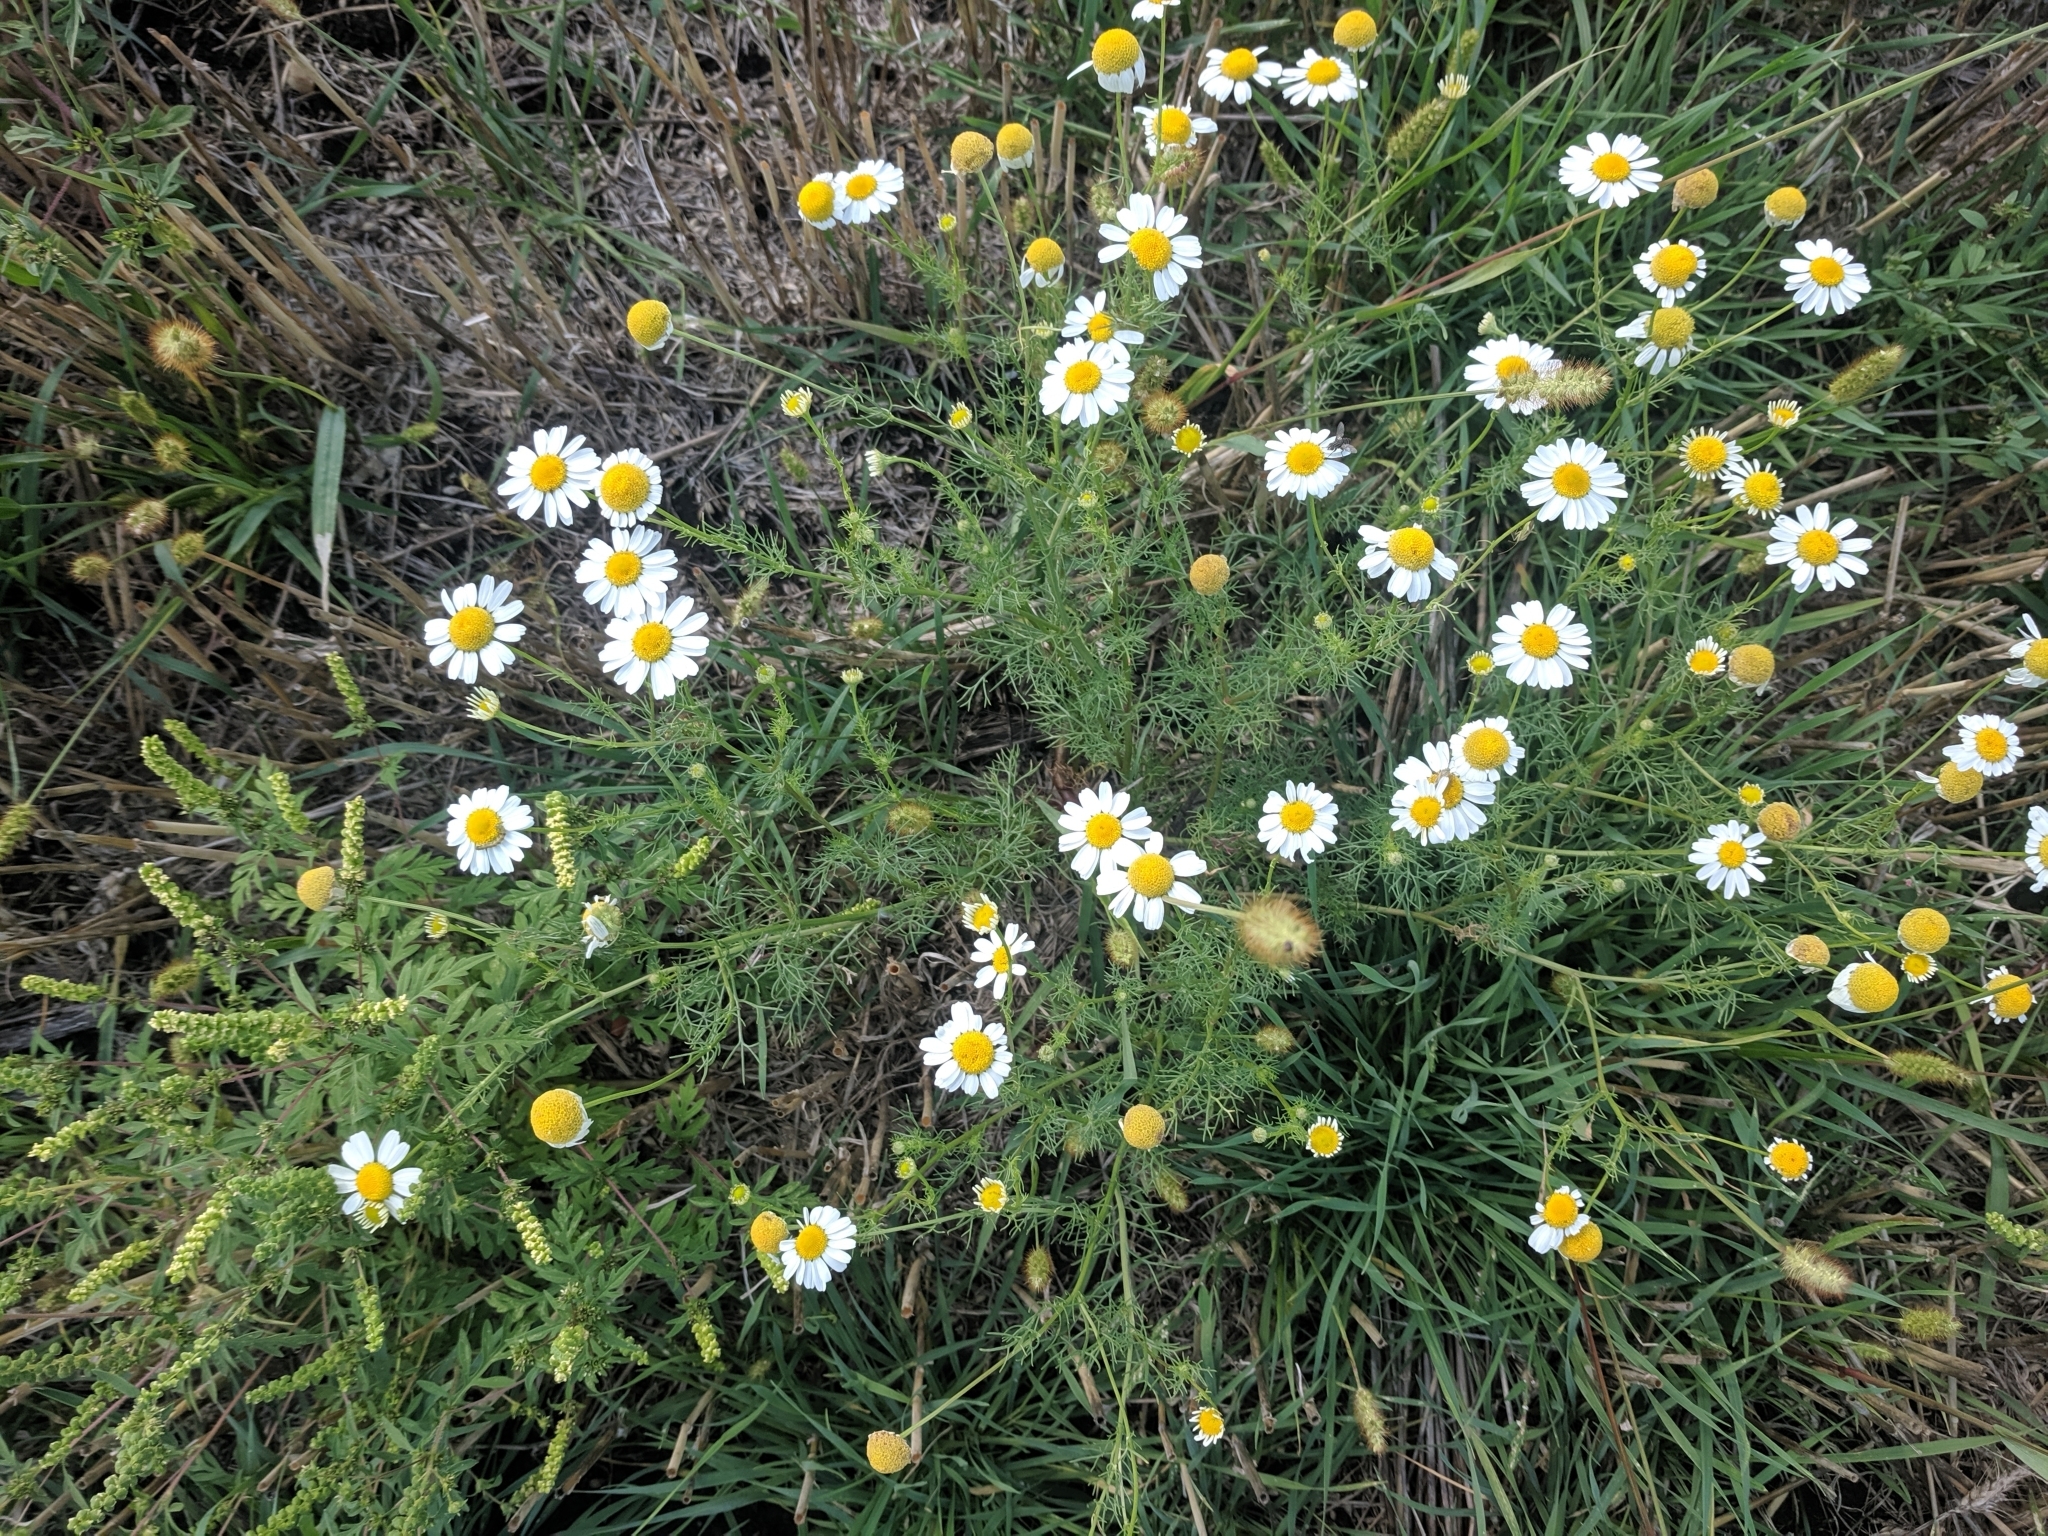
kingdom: Plantae
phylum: Tracheophyta
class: Magnoliopsida
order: Asterales
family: Asteraceae
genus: Matricaria
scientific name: Matricaria chamomilla
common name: Scented mayweed
